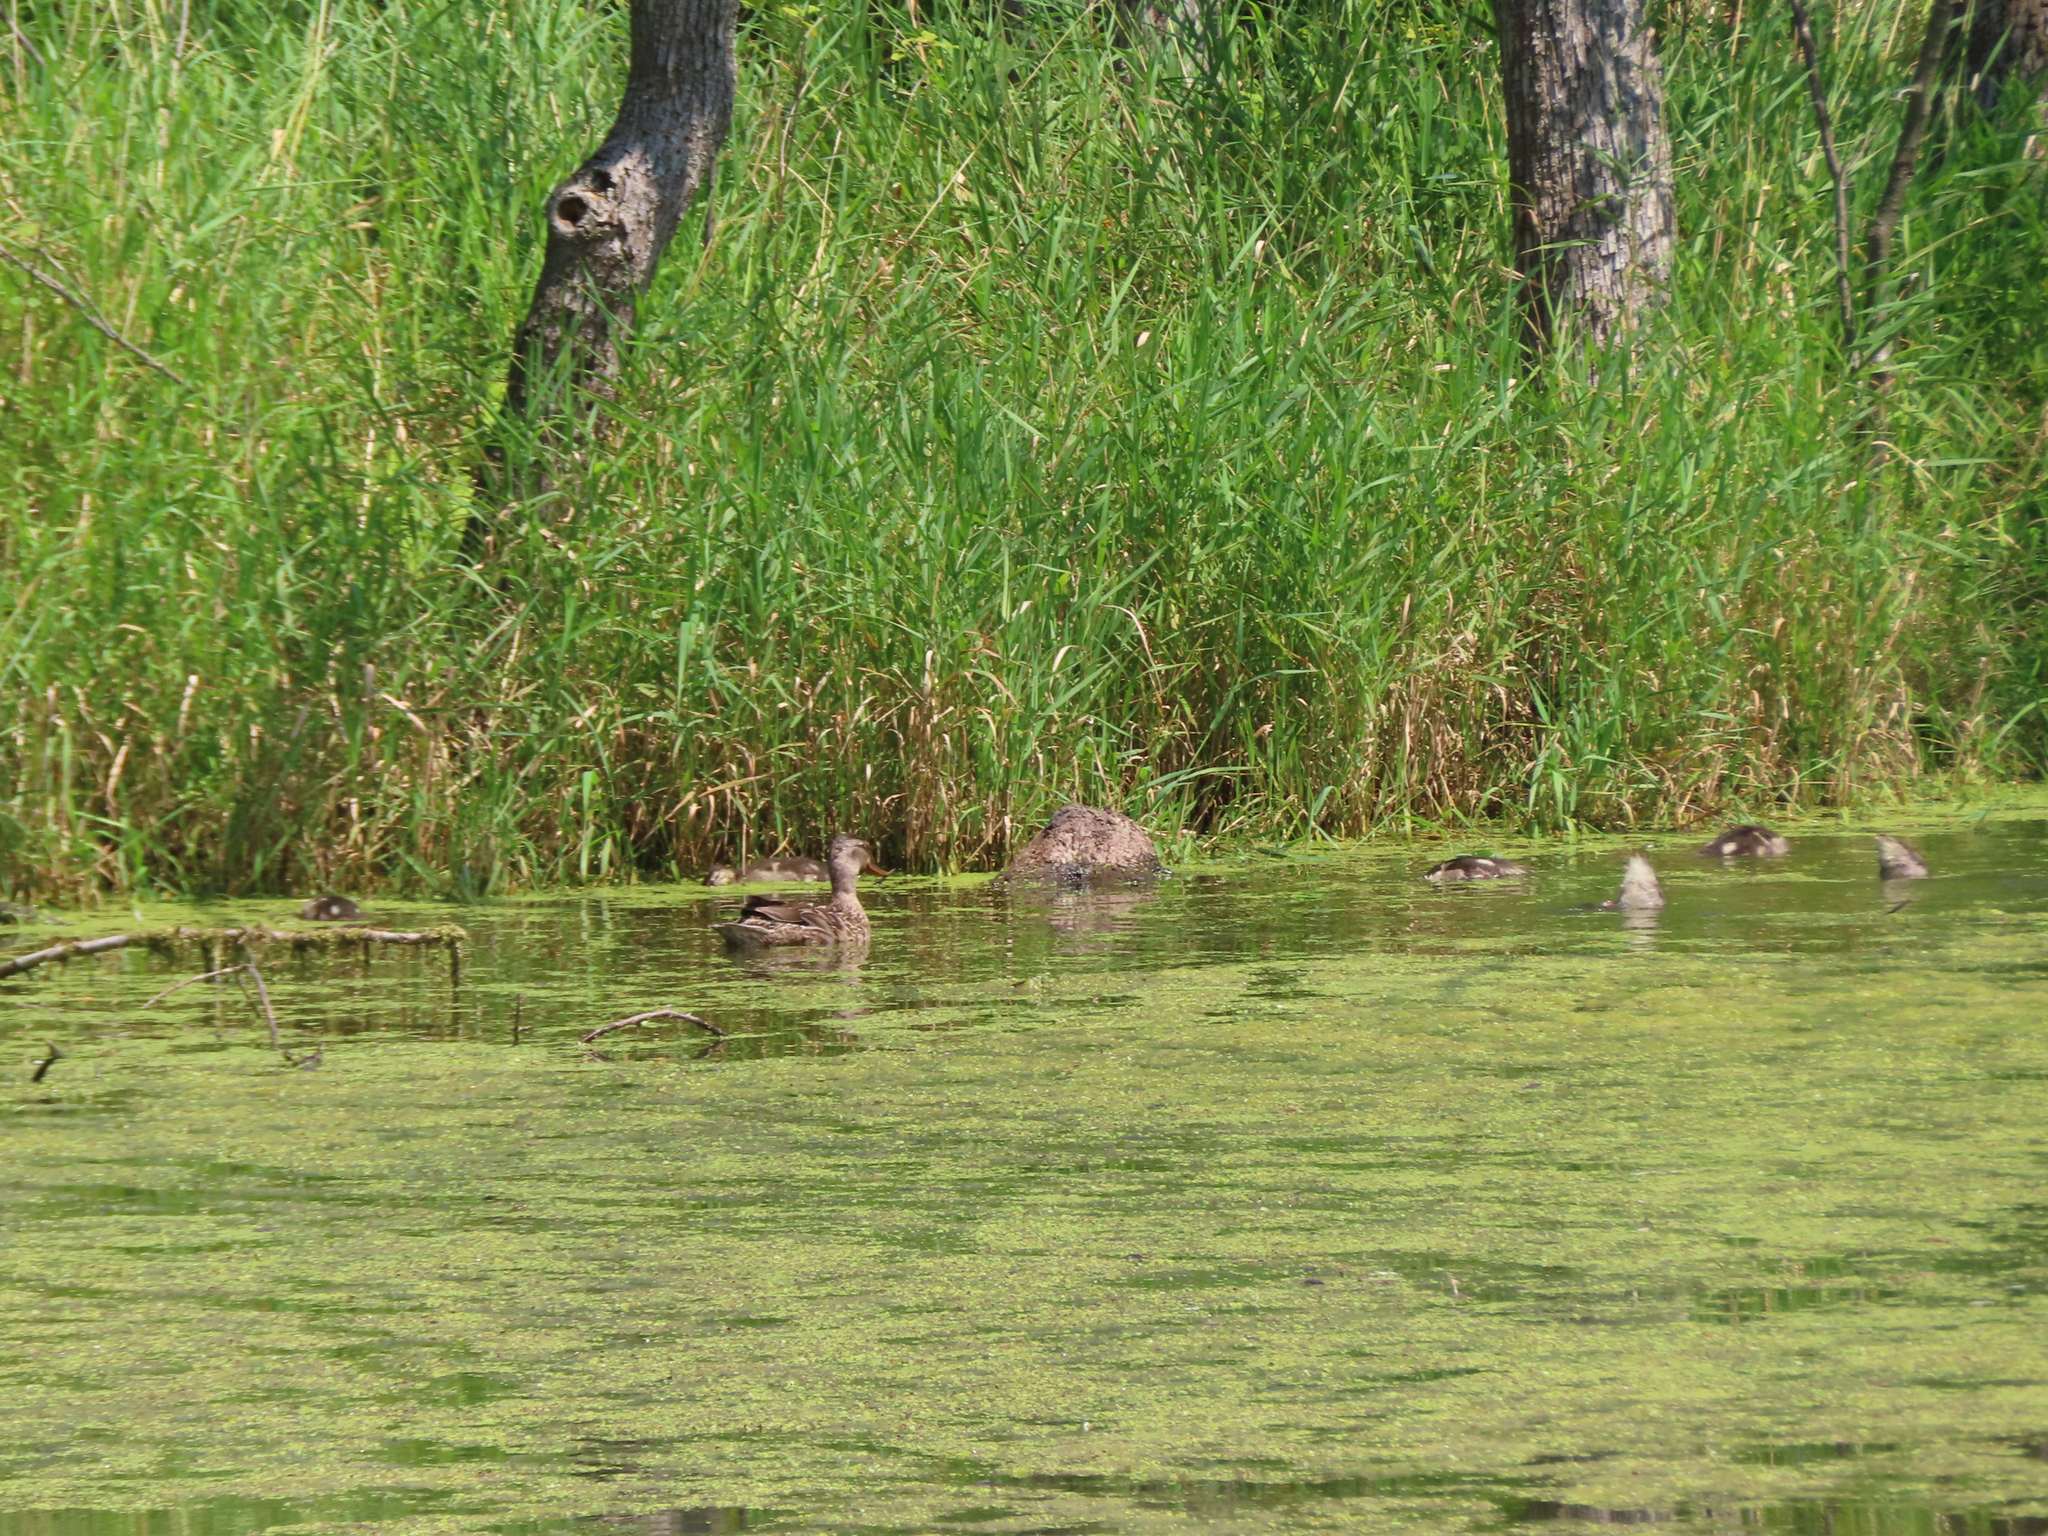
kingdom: Animalia
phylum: Chordata
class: Aves
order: Anseriformes
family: Anatidae
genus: Anas
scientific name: Anas platyrhynchos
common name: Mallard
